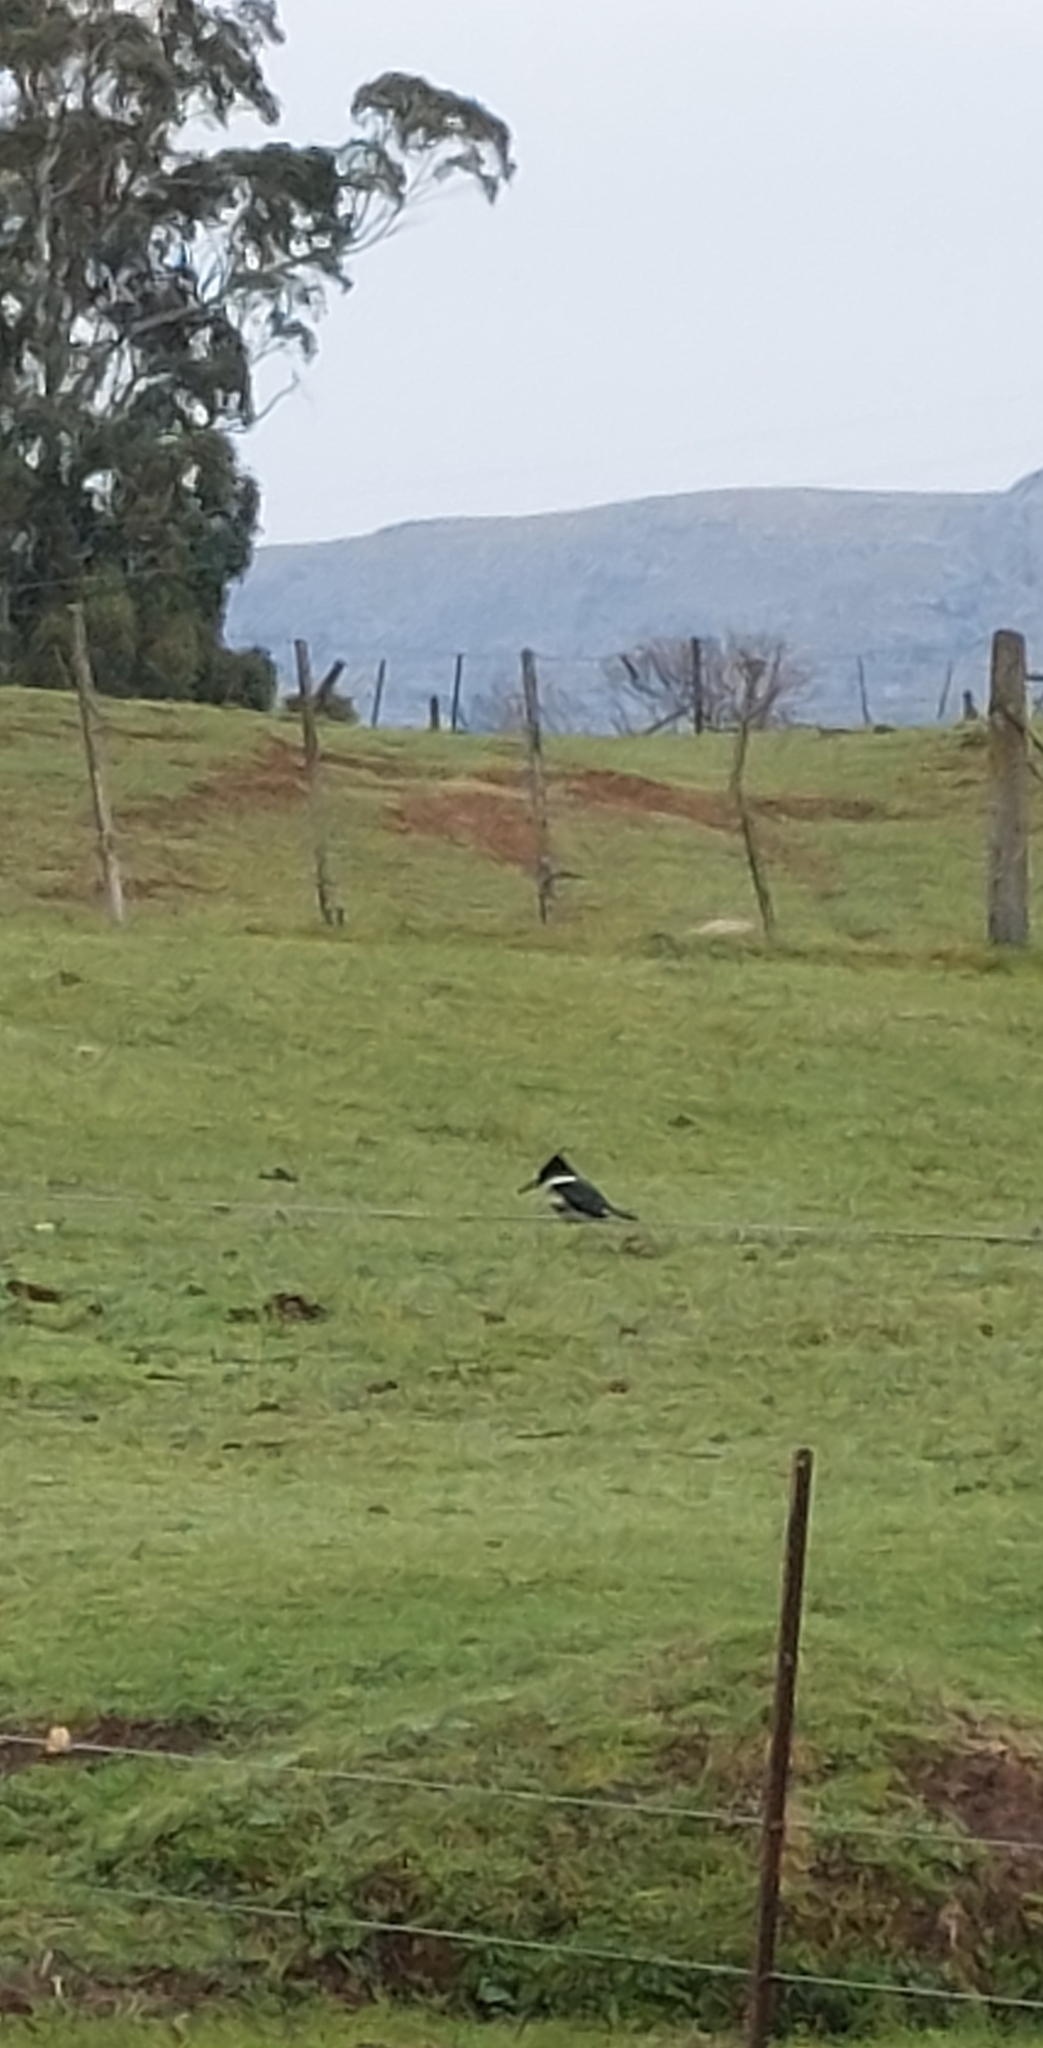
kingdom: Animalia
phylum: Chordata
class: Aves
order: Coraciiformes
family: Alcedinidae
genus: Chloroceryle
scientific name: Chloroceryle americana
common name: Green kingfisher
